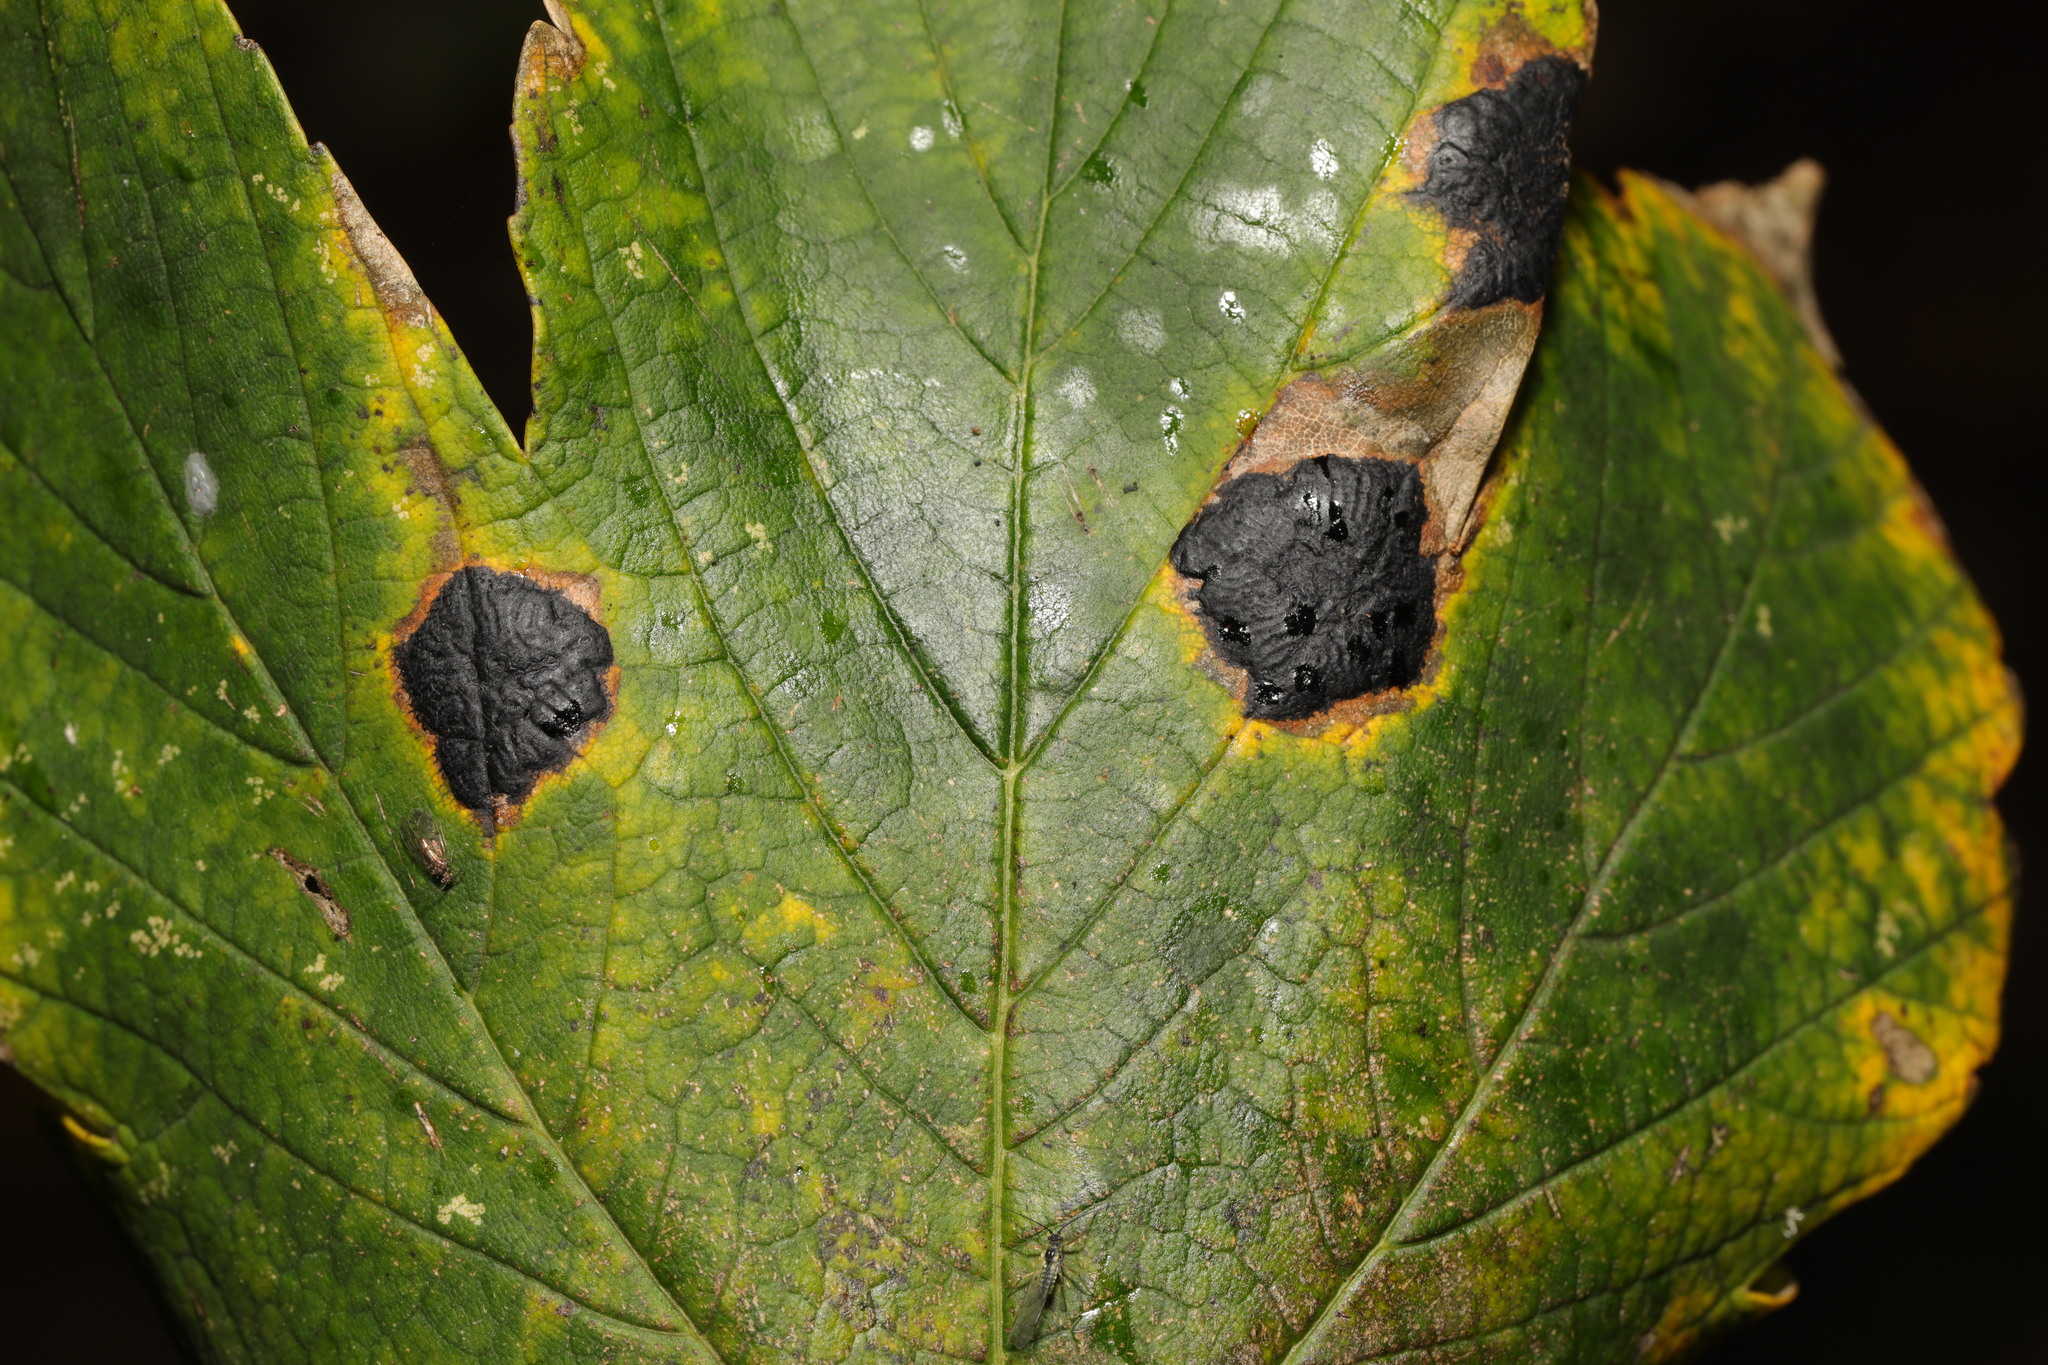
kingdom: Fungi
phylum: Ascomycota
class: Leotiomycetes
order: Rhytismatales
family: Rhytismataceae
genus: Rhytisma
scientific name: Rhytisma acerinum
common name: European tar spot
